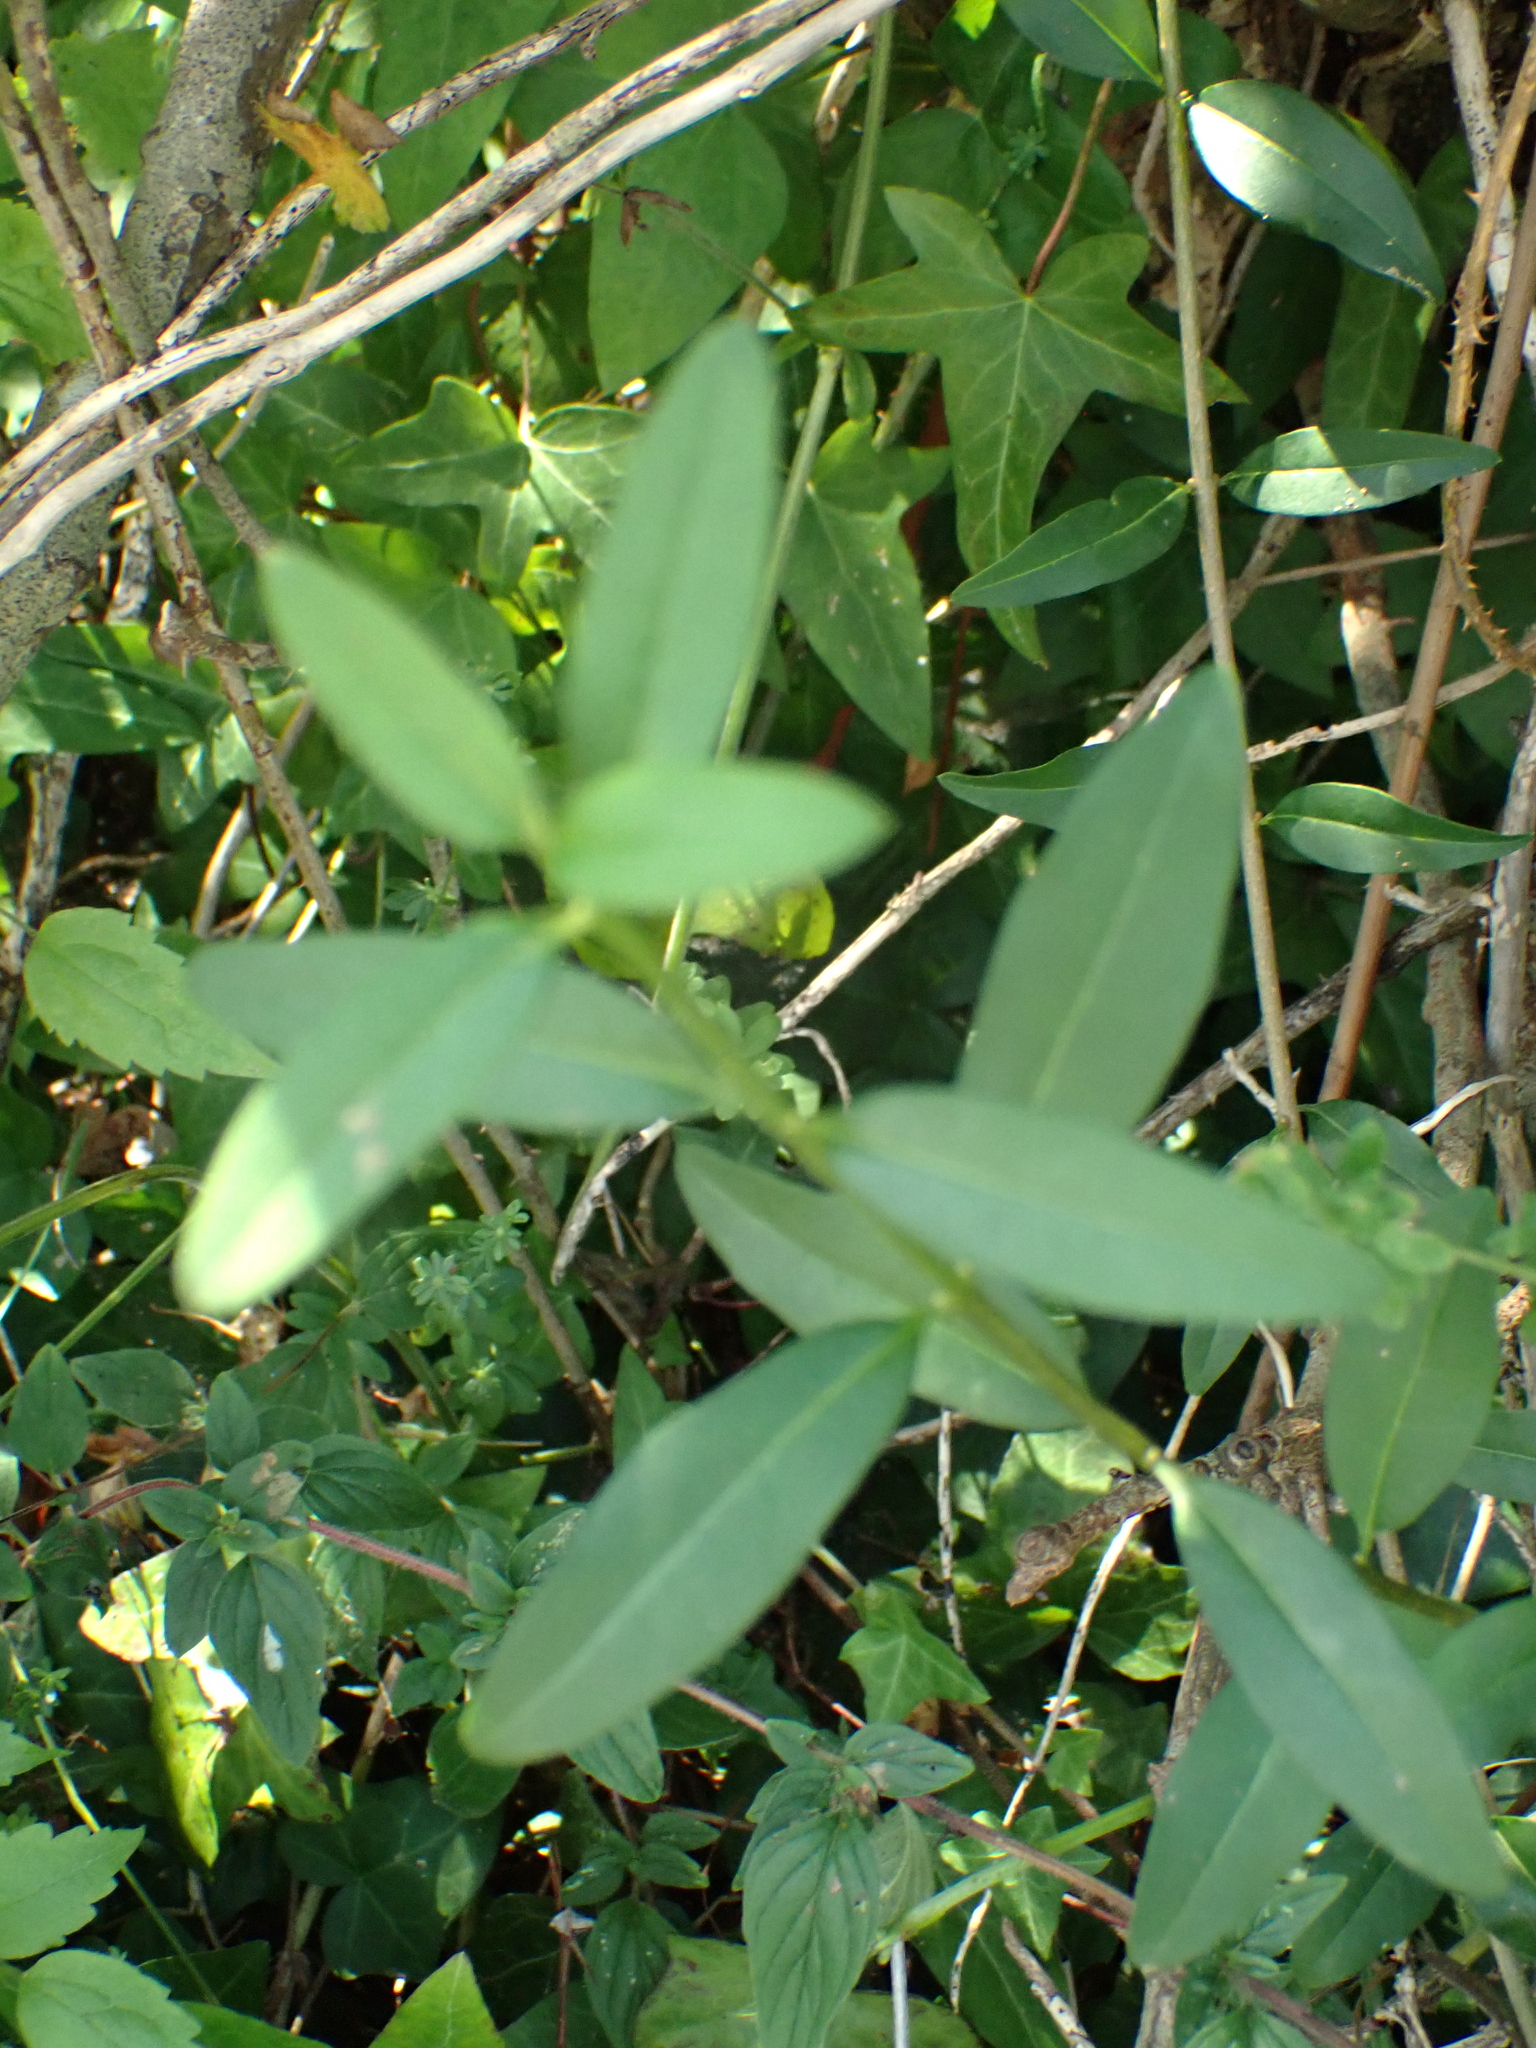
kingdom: Plantae
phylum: Tracheophyta
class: Magnoliopsida
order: Lamiales
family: Oleaceae
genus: Ligustrum
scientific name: Ligustrum vulgare
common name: Wild privet
